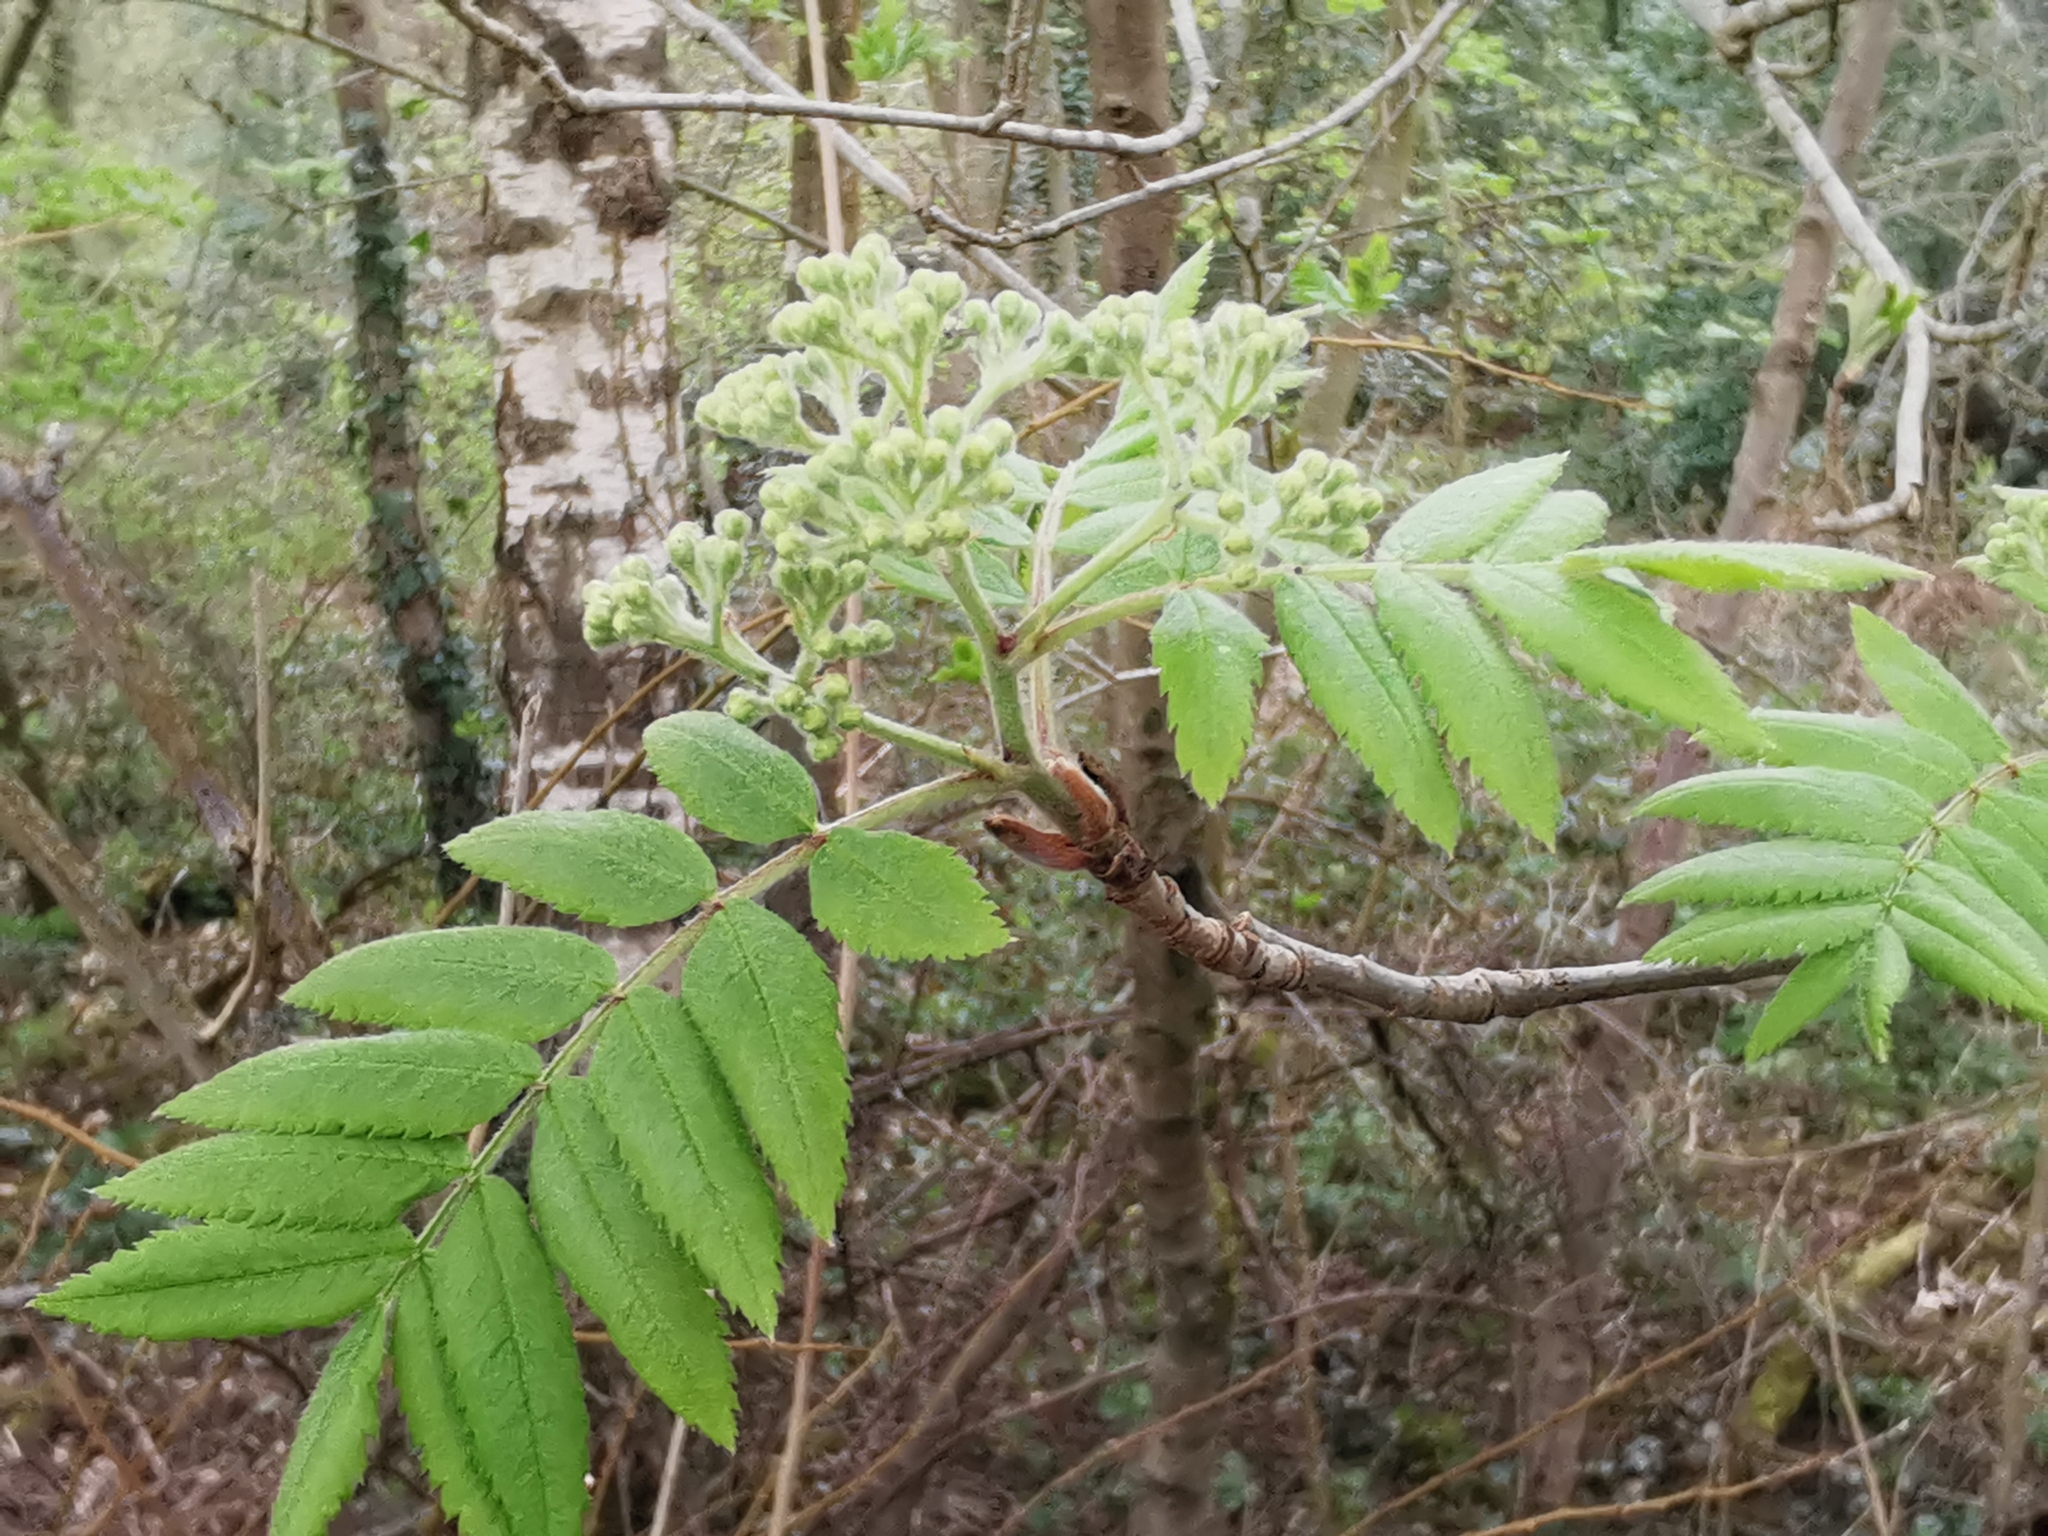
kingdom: Plantae
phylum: Tracheophyta
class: Magnoliopsida
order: Rosales
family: Rosaceae
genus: Sorbus
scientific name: Sorbus aucuparia
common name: Rowan
